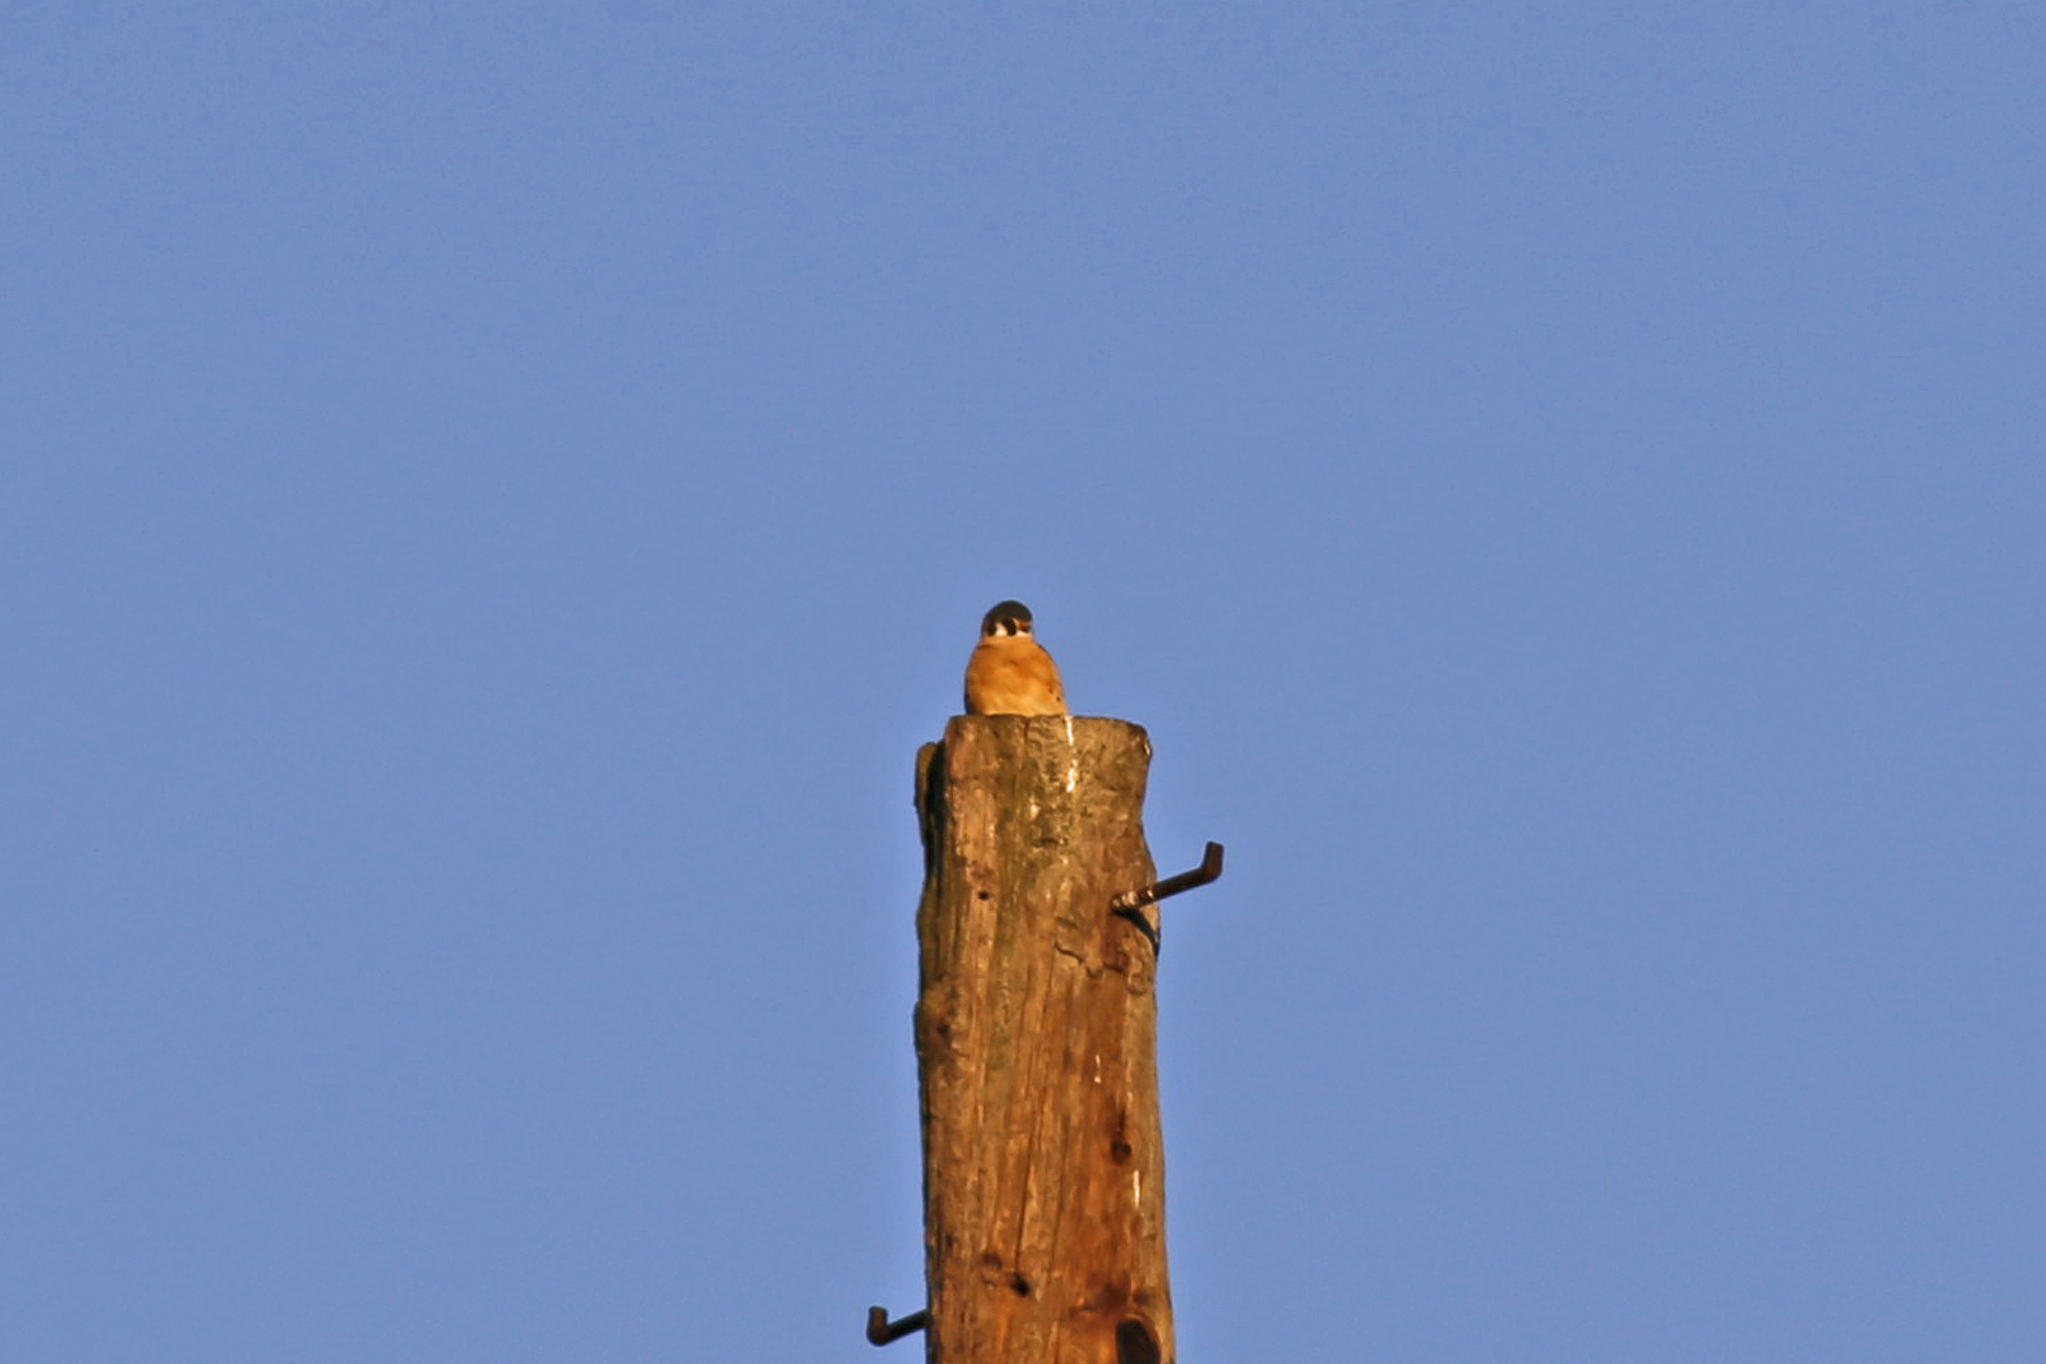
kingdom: Animalia
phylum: Chordata
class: Aves
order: Falconiformes
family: Falconidae
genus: Falco
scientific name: Falco sparverius
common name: American kestrel
